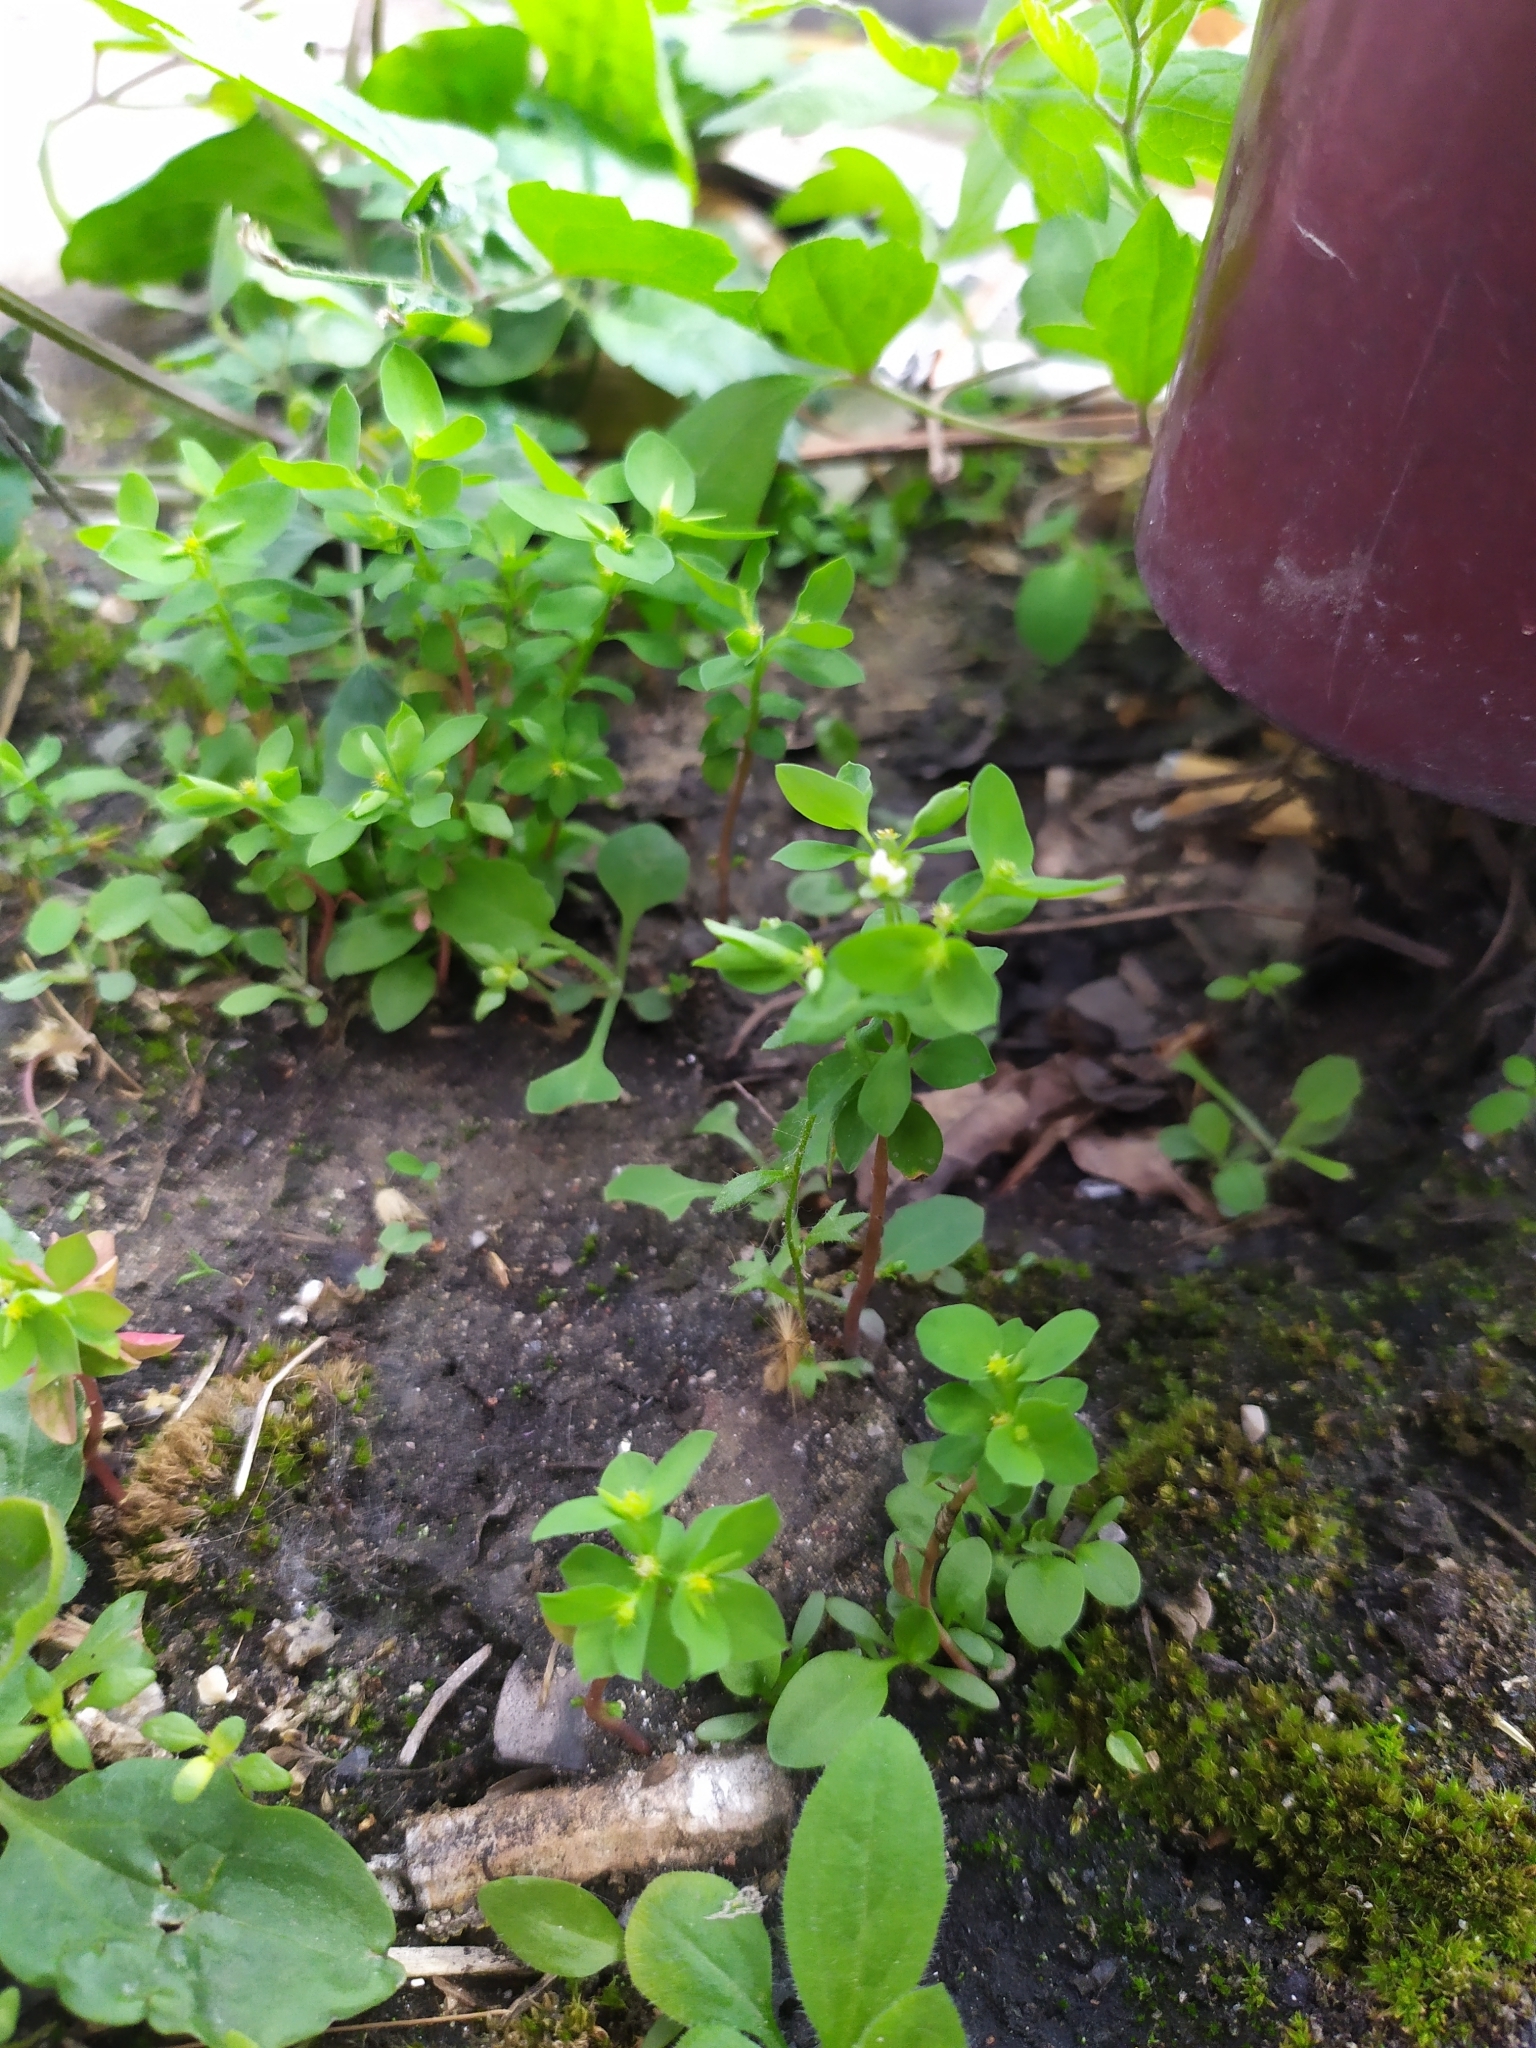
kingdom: Plantae
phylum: Tracheophyta
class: Magnoliopsida
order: Malpighiales
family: Euphorbiaceae
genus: Euphorbia
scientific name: Euphorbia peplus
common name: Petty spurge
